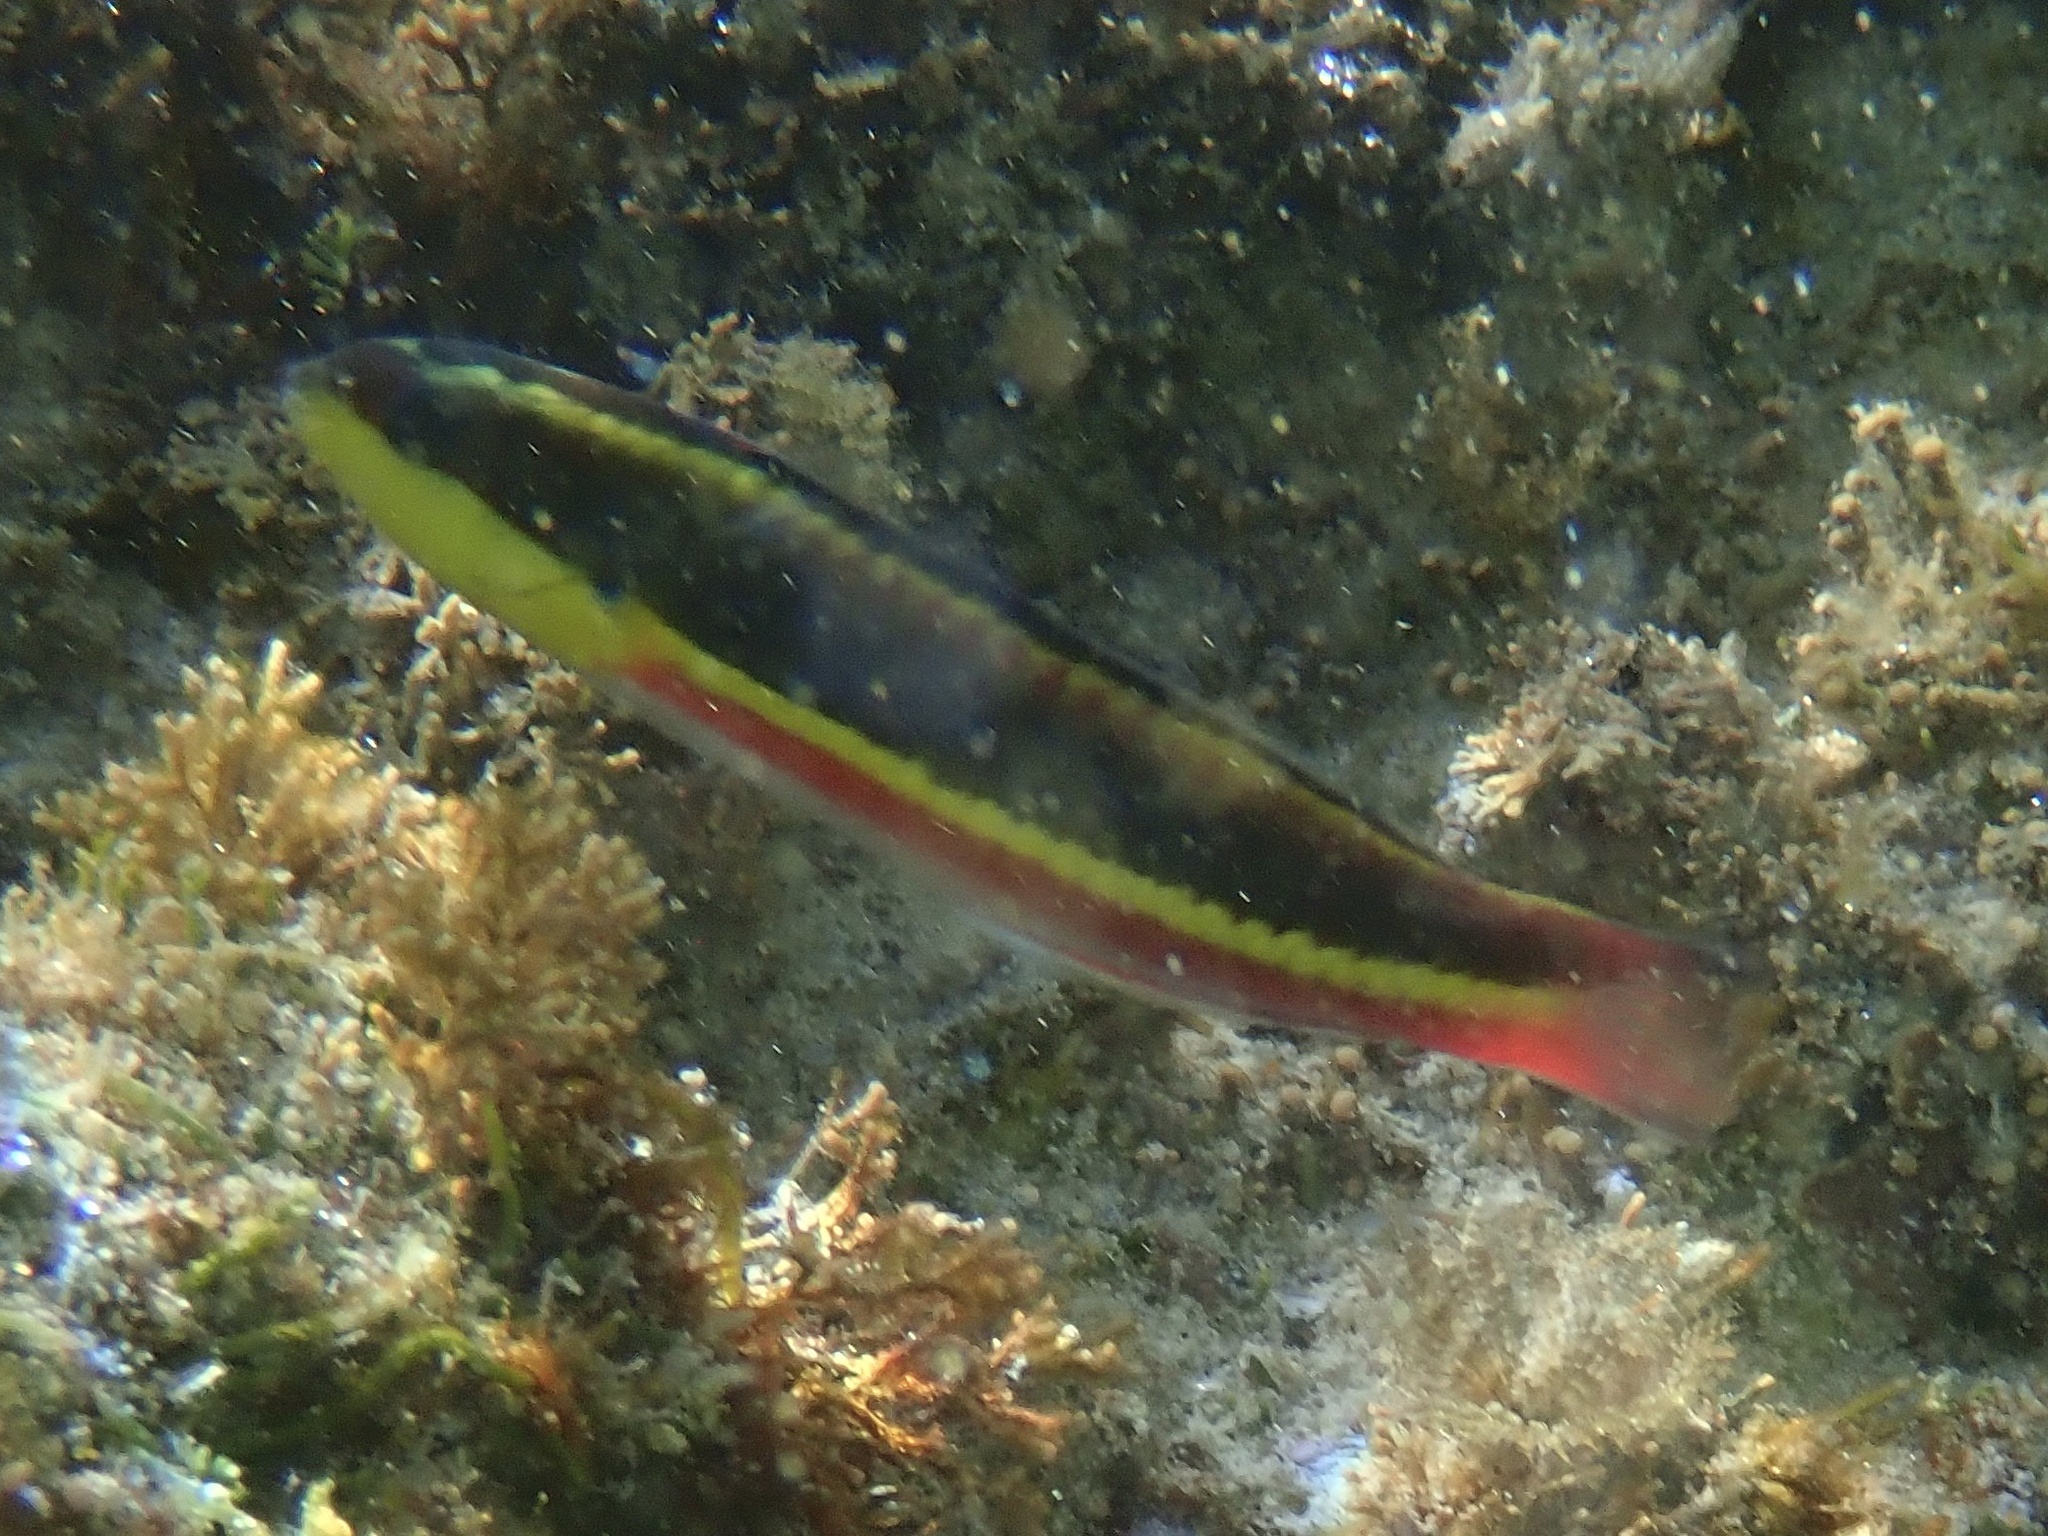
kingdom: Animalia
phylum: Chordata
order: Perciformes
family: Labridae
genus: Thalassoma
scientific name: Thalassoma lucasanum
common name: Cortez rainbow wrasse
